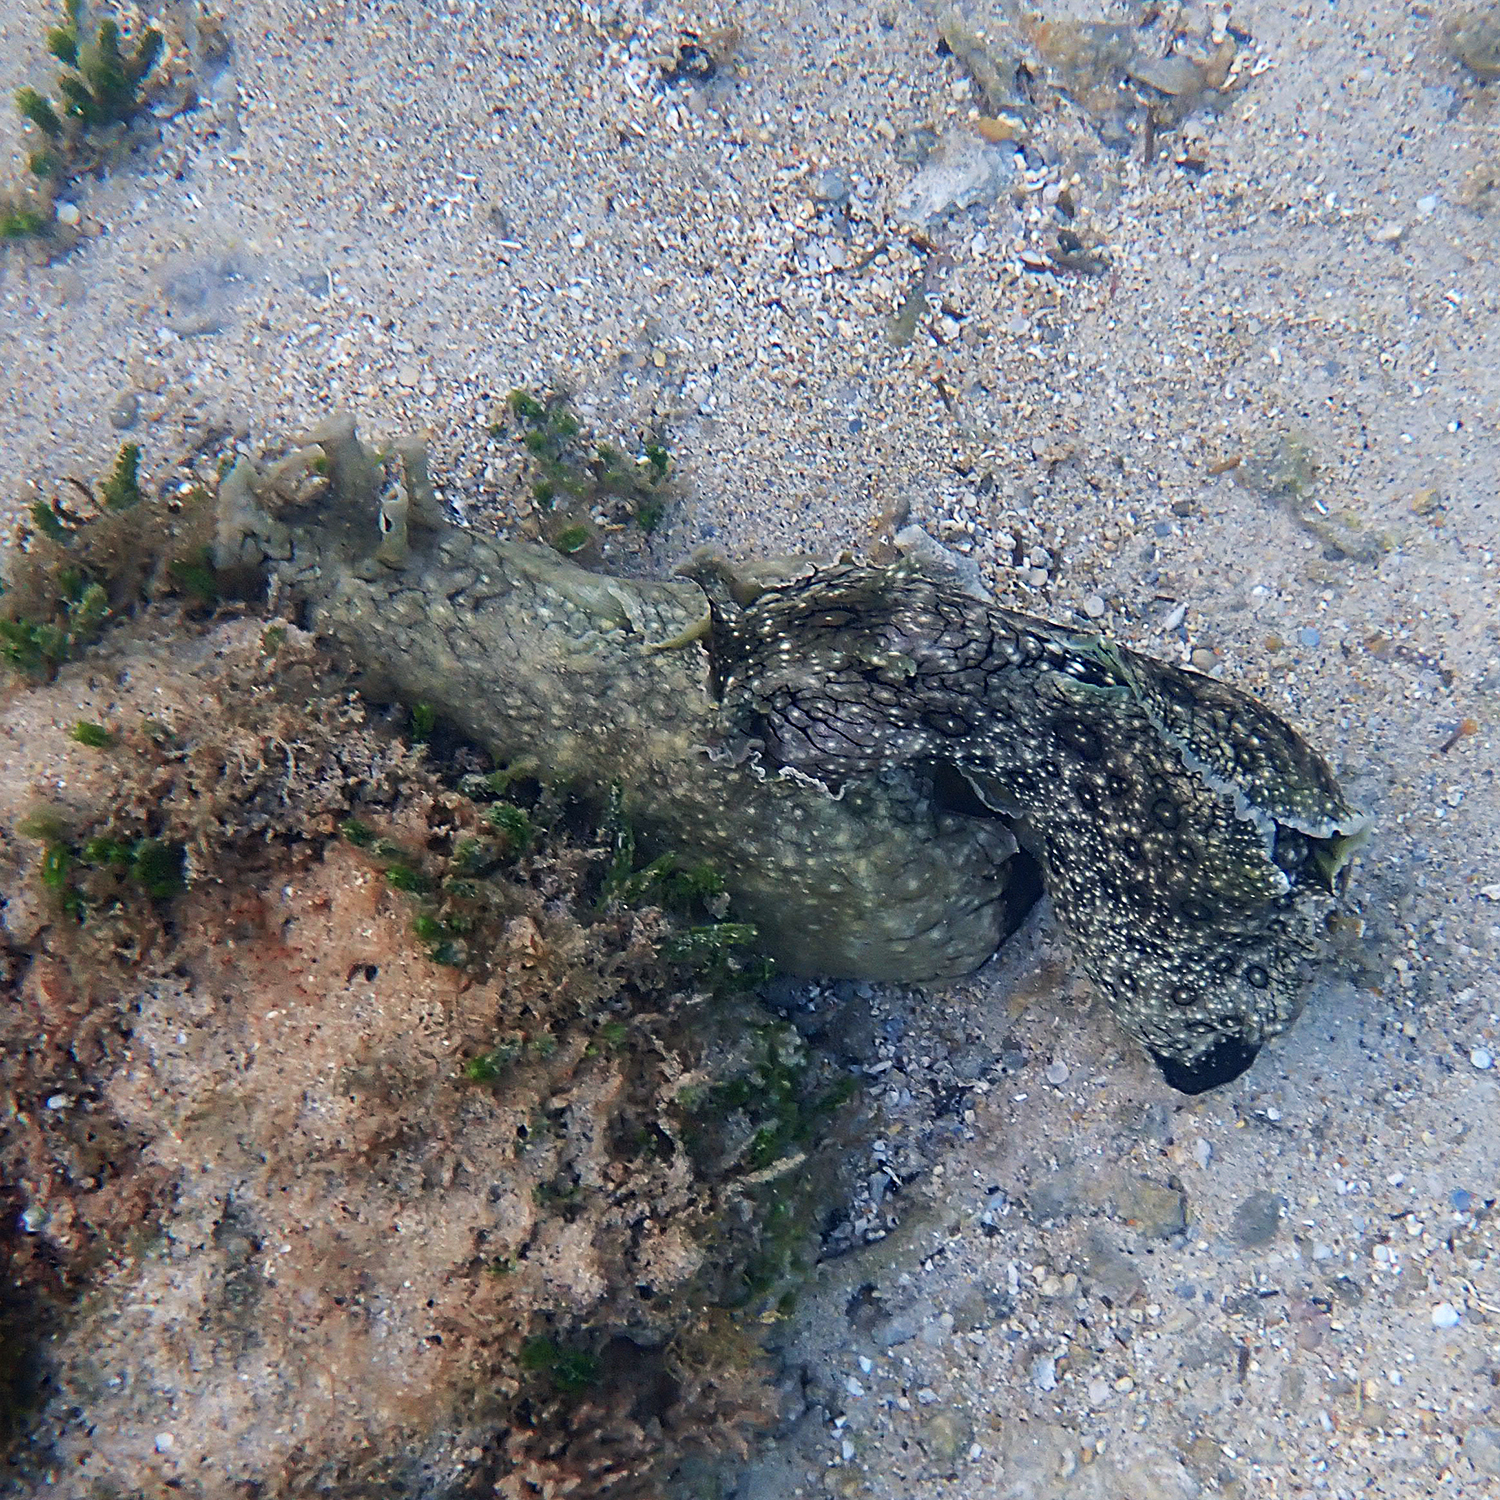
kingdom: Animalia
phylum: Mollusca
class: Gastropoda
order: Aplysiida
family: Aplysiidae
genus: Aplysia
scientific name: Aplysia argus
